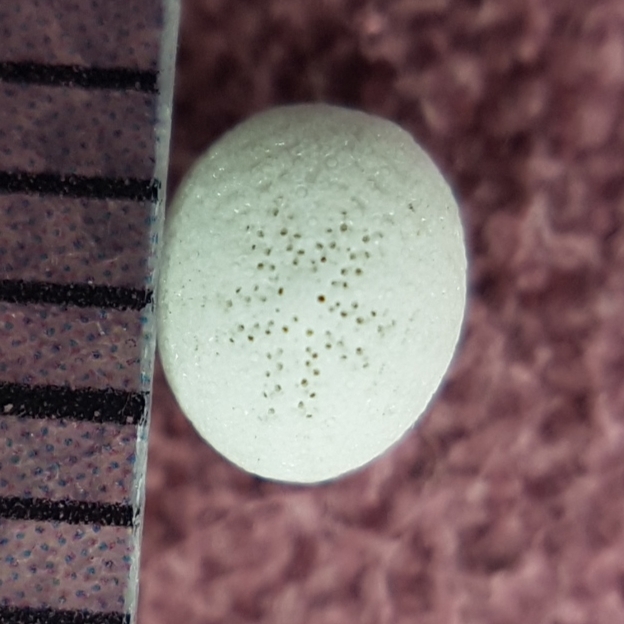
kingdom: Animalia
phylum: Echinodermata
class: Echinoidea
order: Echinolampadacea
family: Fibulariidae
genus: Echinocyamus
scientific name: Echinocyamus pusillus
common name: Broad beau of sea
